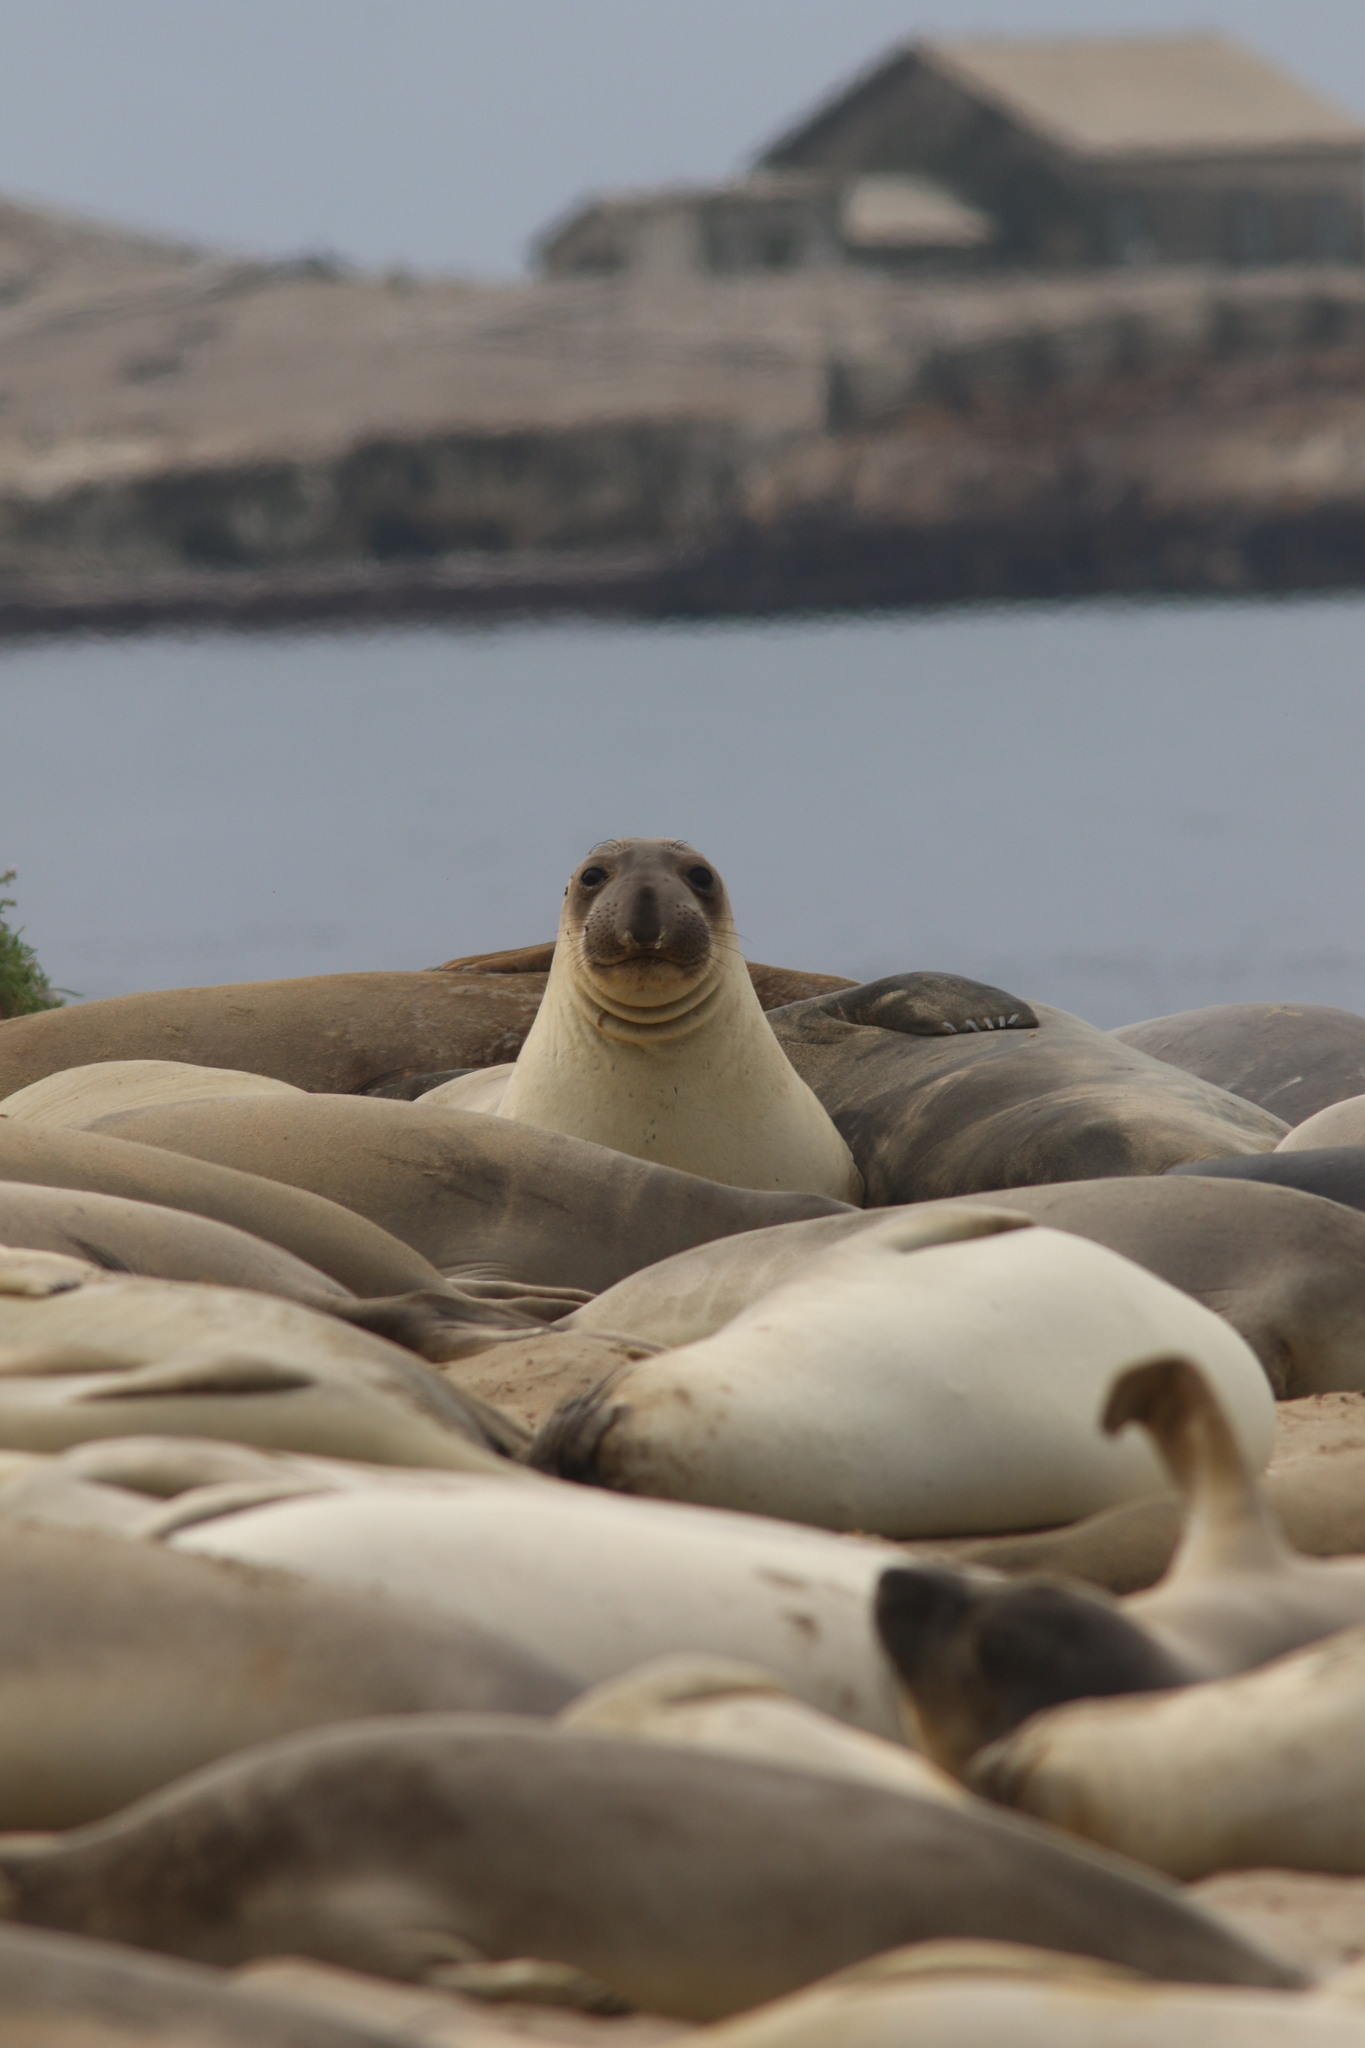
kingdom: Animalia
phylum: Chordata
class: Mammalia
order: Carnivora
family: Phocidae
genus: Mirounga
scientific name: Mirounga angustirostris
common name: Northern elephant seal
